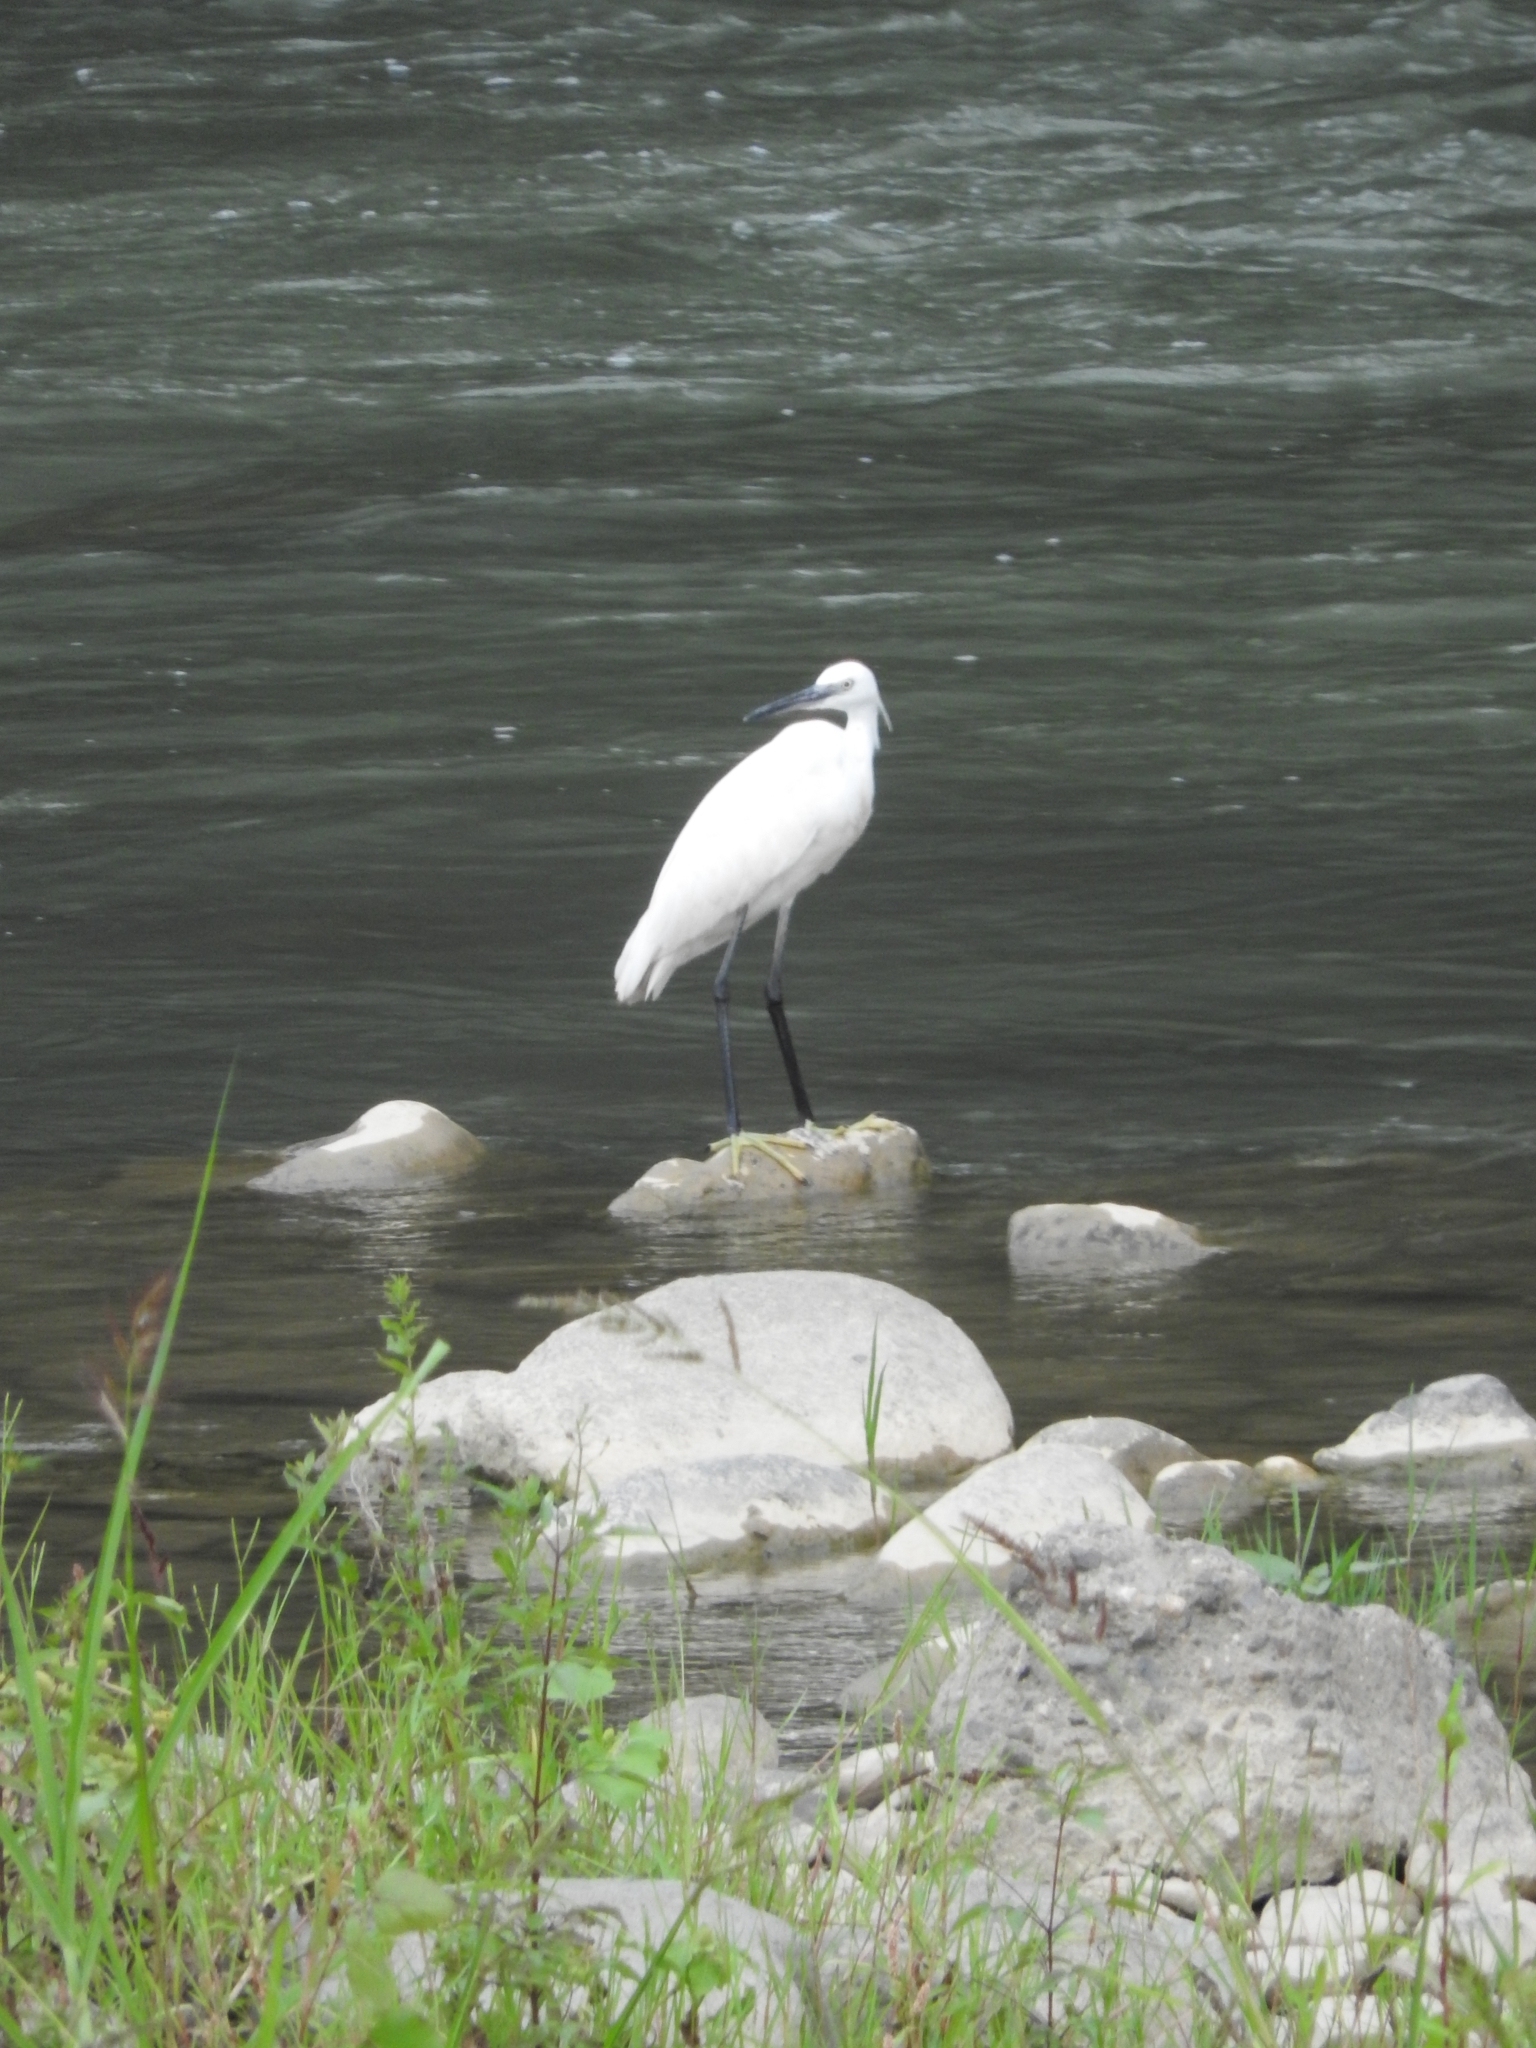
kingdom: Animalia
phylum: Chordata
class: Aves
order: Pelecaniformes
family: Ardeidae
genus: Egretta
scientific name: Egretta garzetta
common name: Little egret
